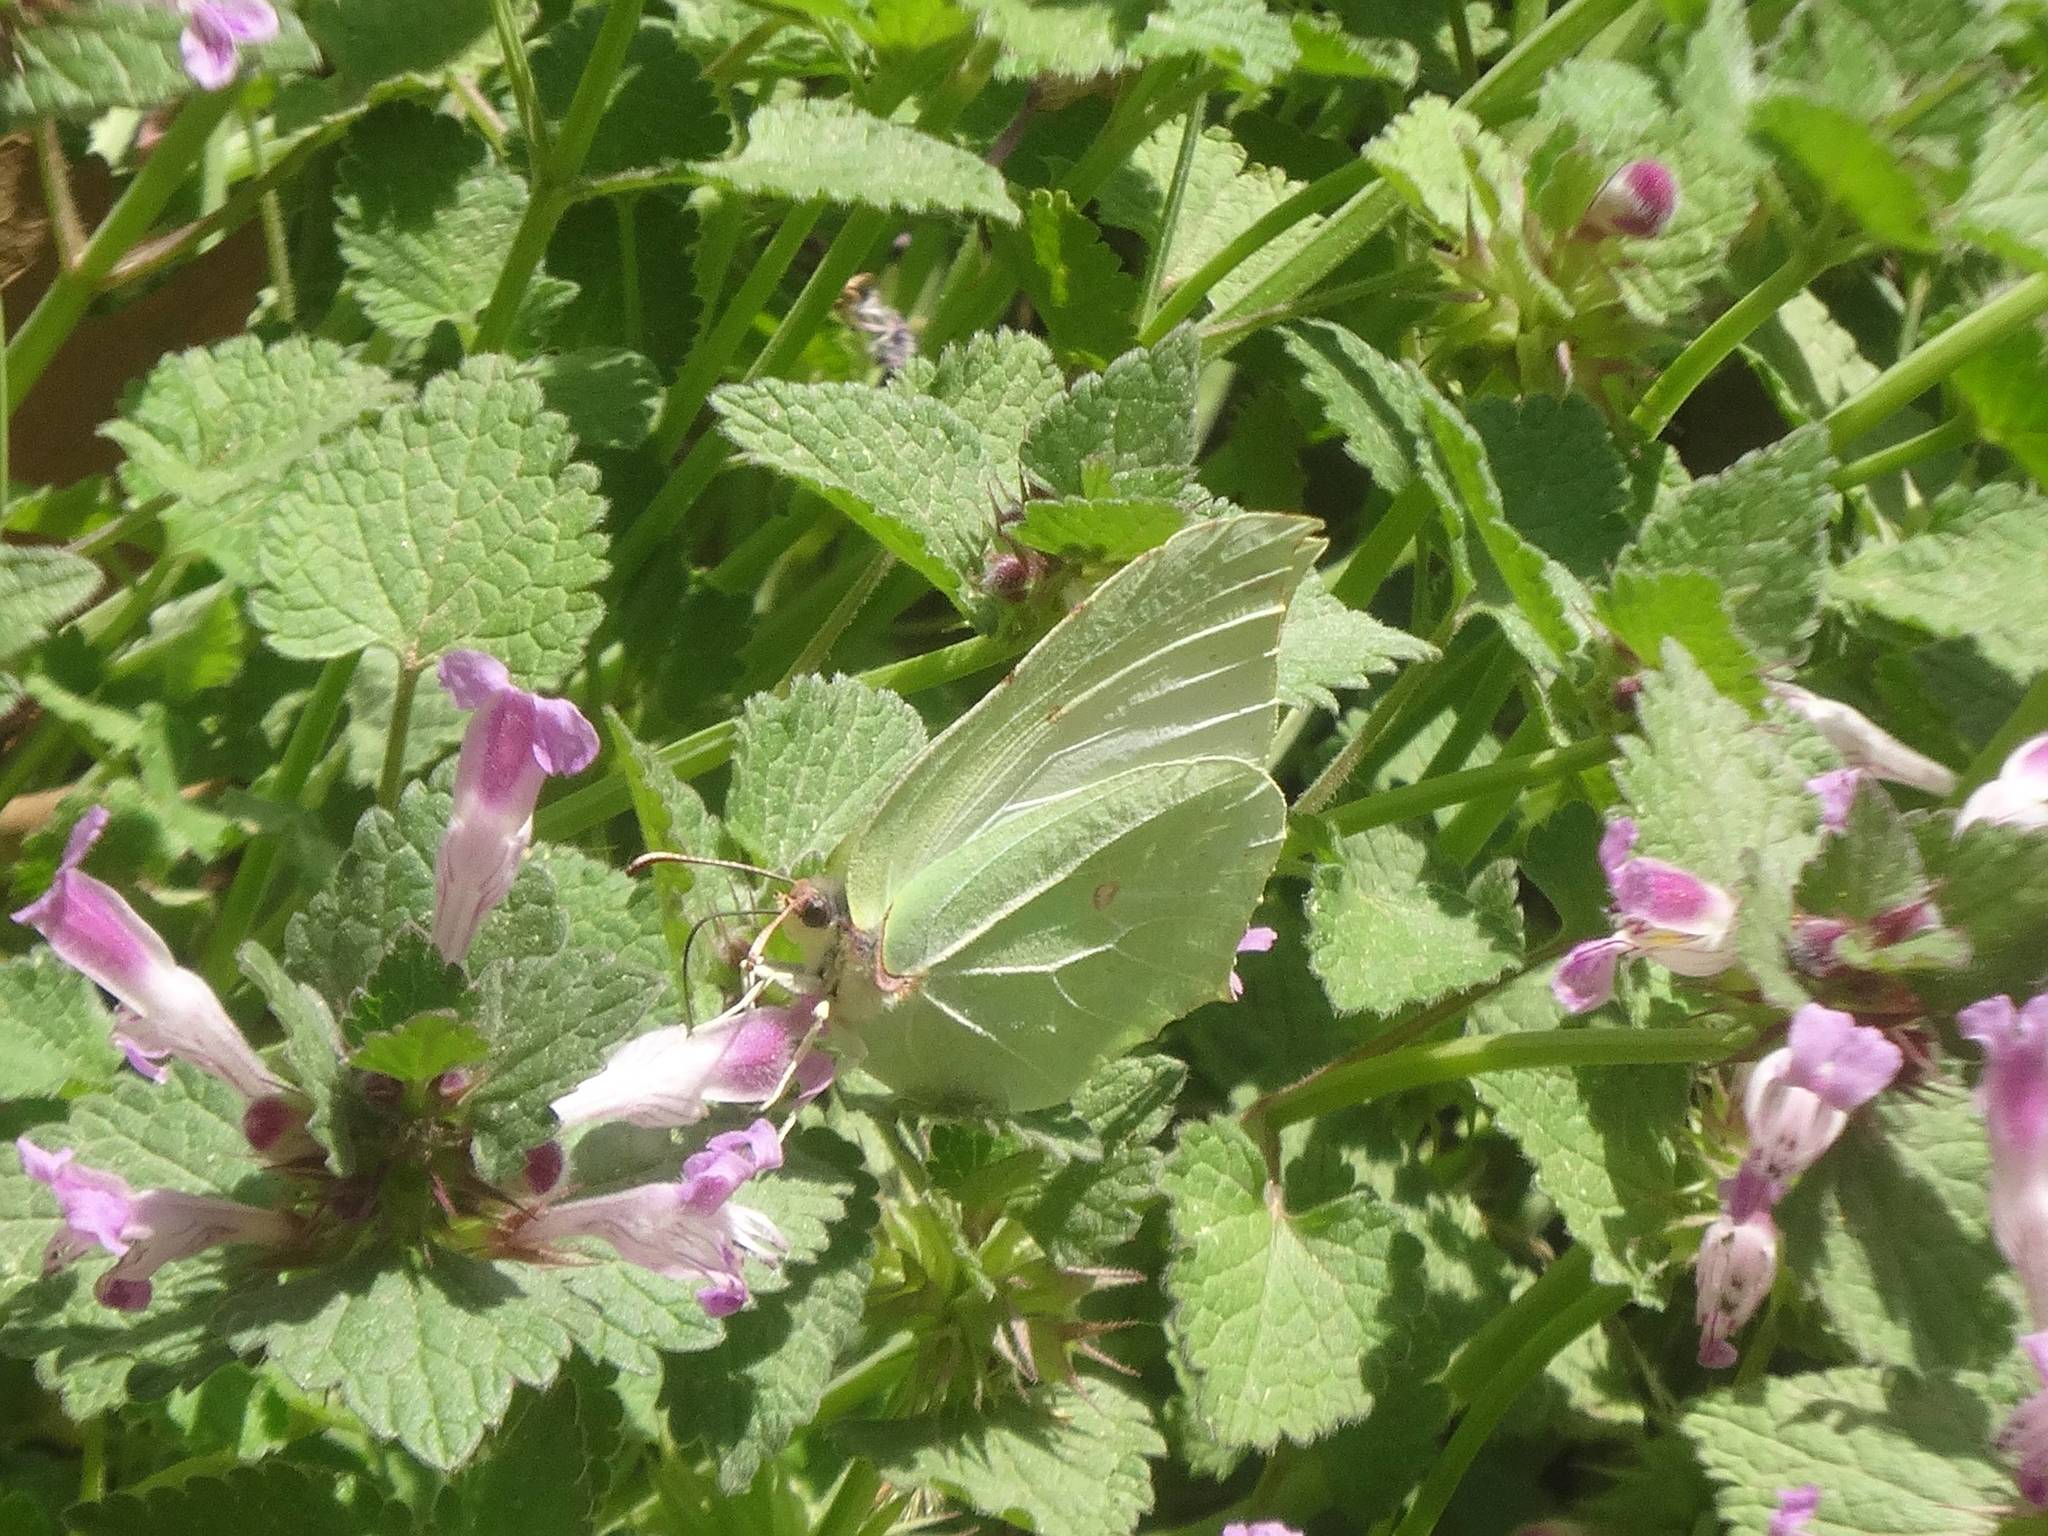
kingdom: Animalia
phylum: Arthropoda
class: Insecta
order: Lepidoptera
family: Pieridae
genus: Gonepteryx
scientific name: Gonepteryx rhamni
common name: Brimstone
